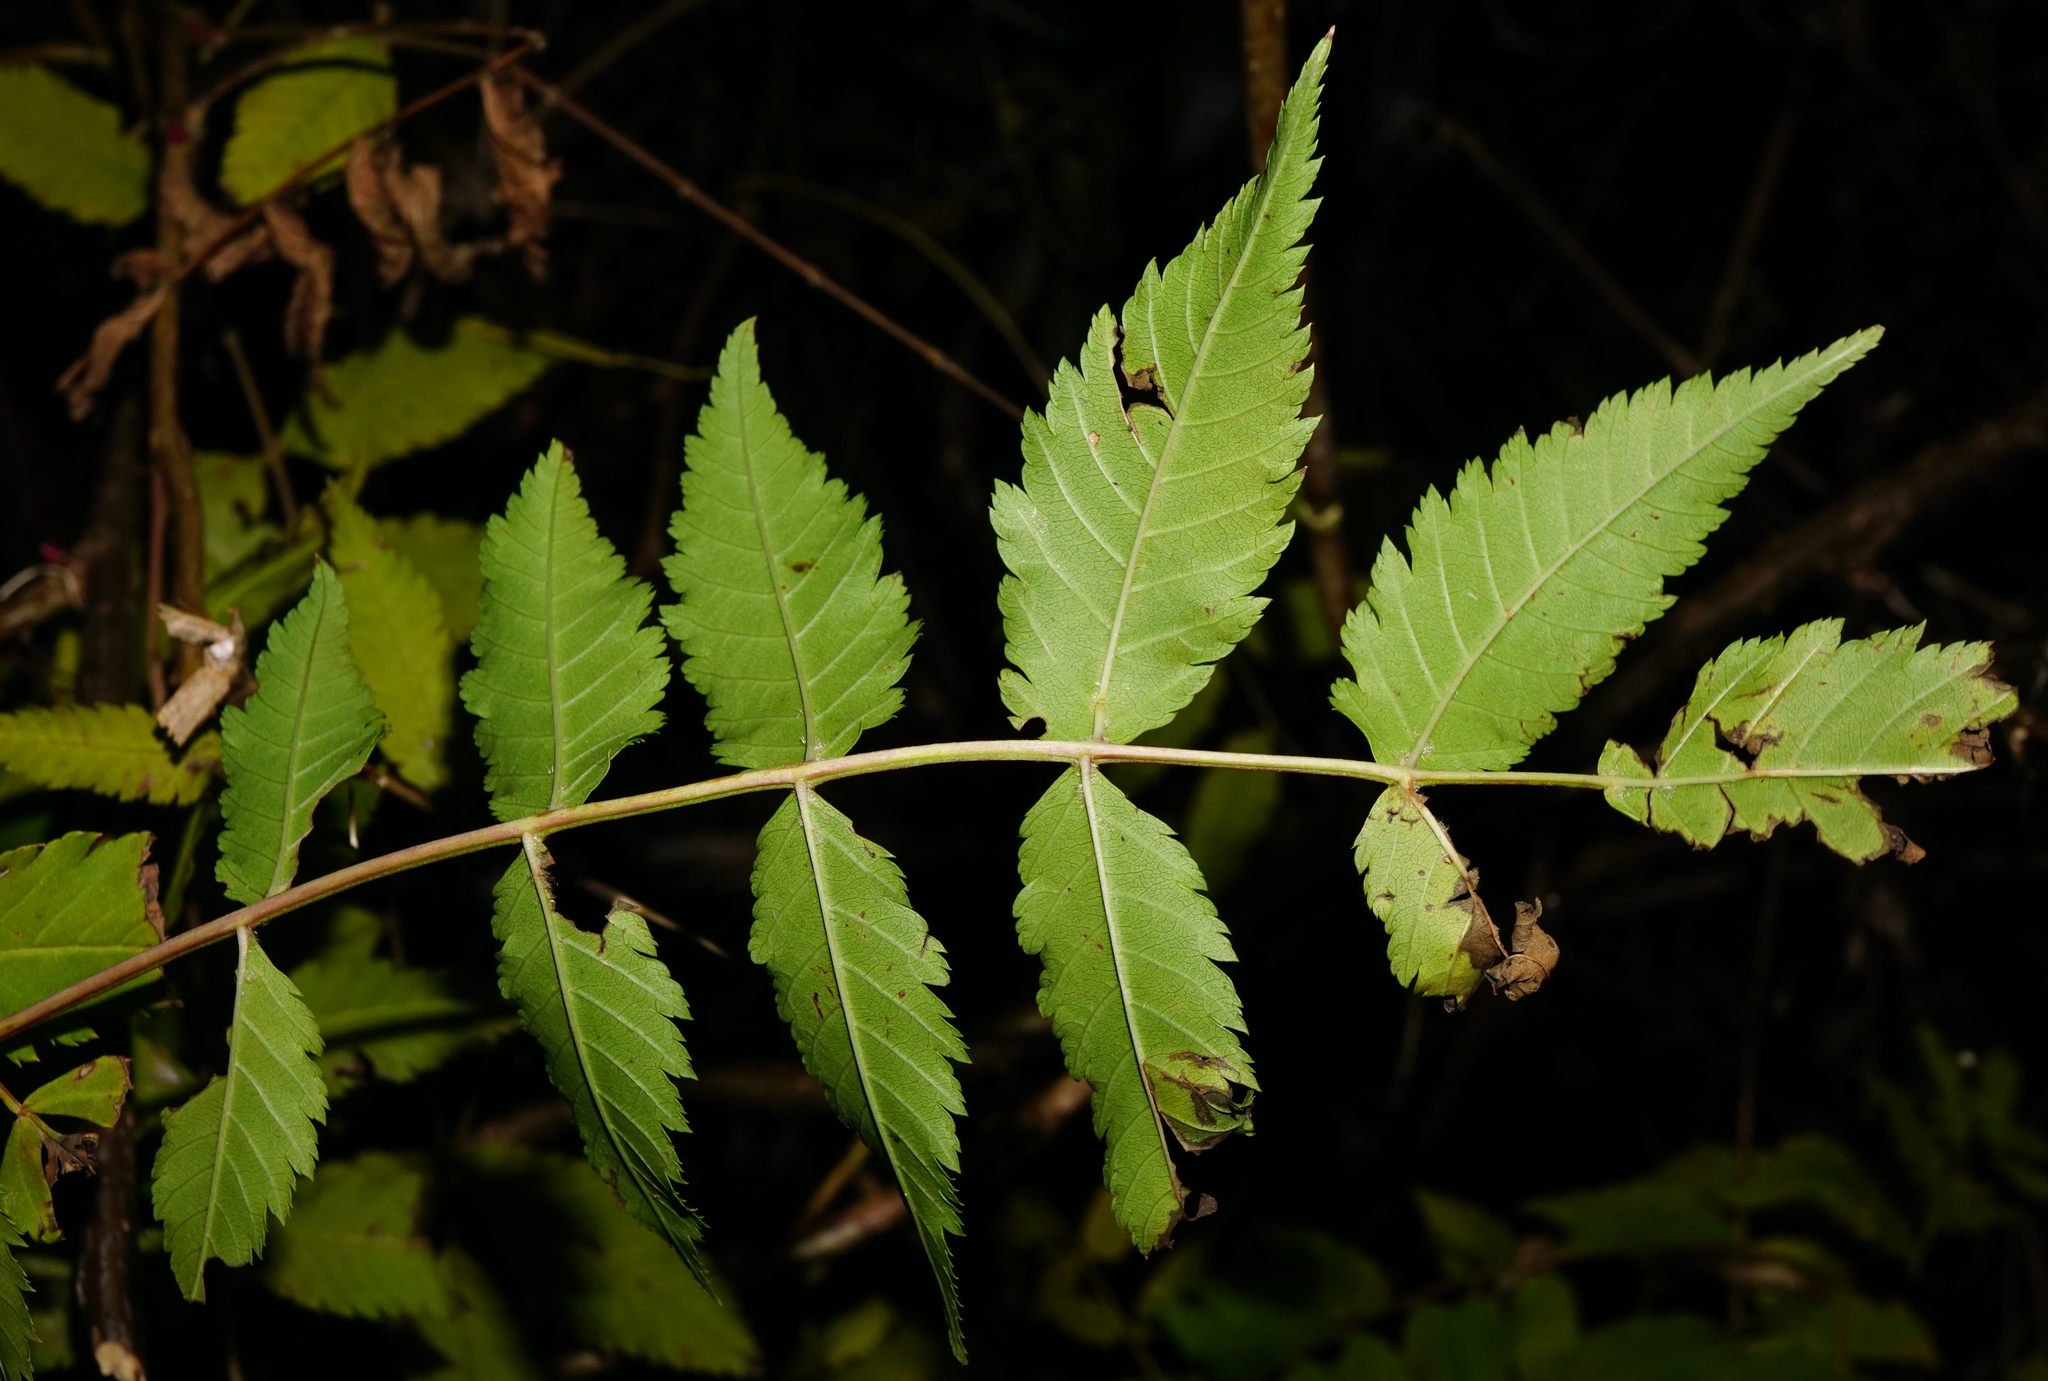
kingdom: Plantae
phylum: Tracheophyta
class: Magnoliopsida
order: Rosales
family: Rosaceae
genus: Sorbaria
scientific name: Sorbaria sorbifolia
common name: False spiraea
